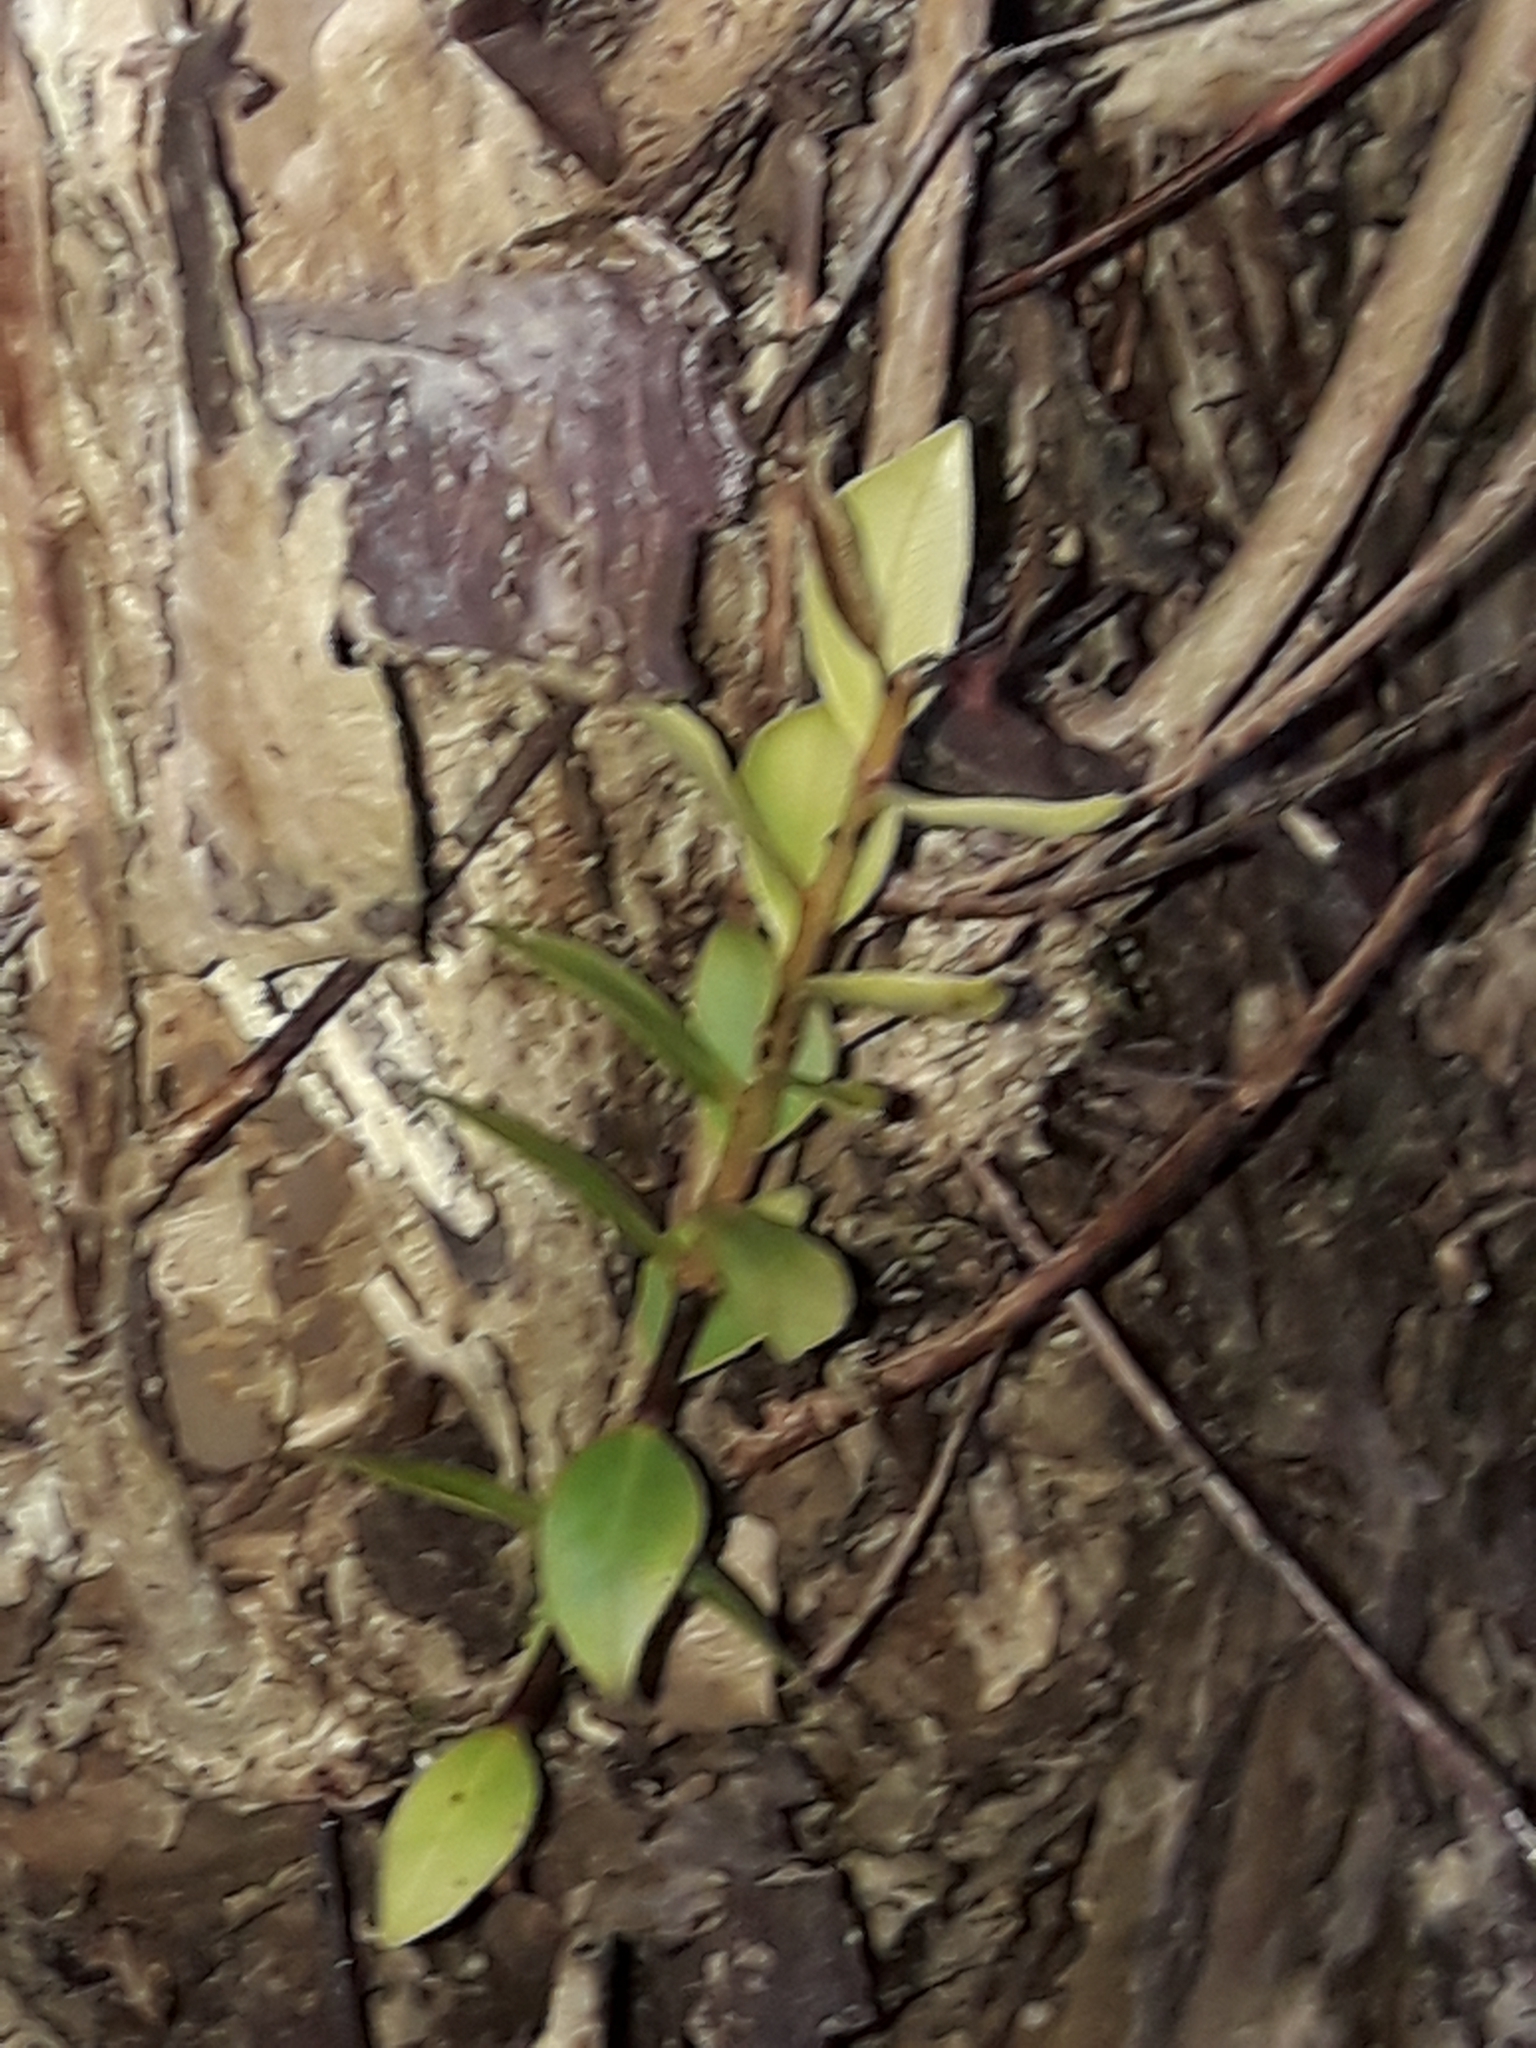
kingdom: Plantae
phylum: Tracheophyta
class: Magnoliopsida
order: Myrtales
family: Myrtaceae
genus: Metrosideros
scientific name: Metrosideros sclerocarpa
